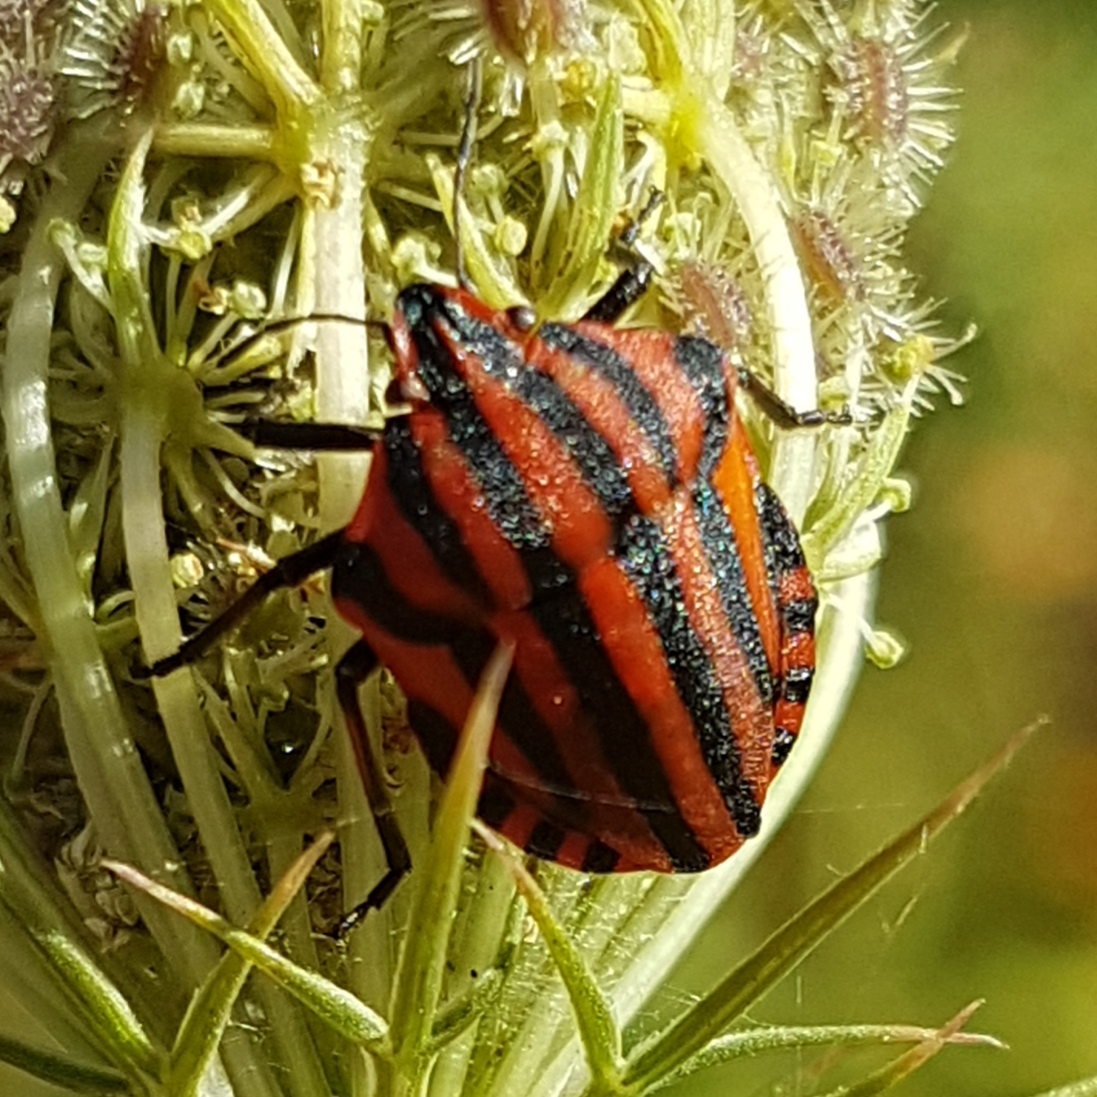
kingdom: Animalia
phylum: Arthropoda
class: Insecta
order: Hemiptera
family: Pentatomidae
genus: Graphosoma
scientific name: Graphosoma italicum
